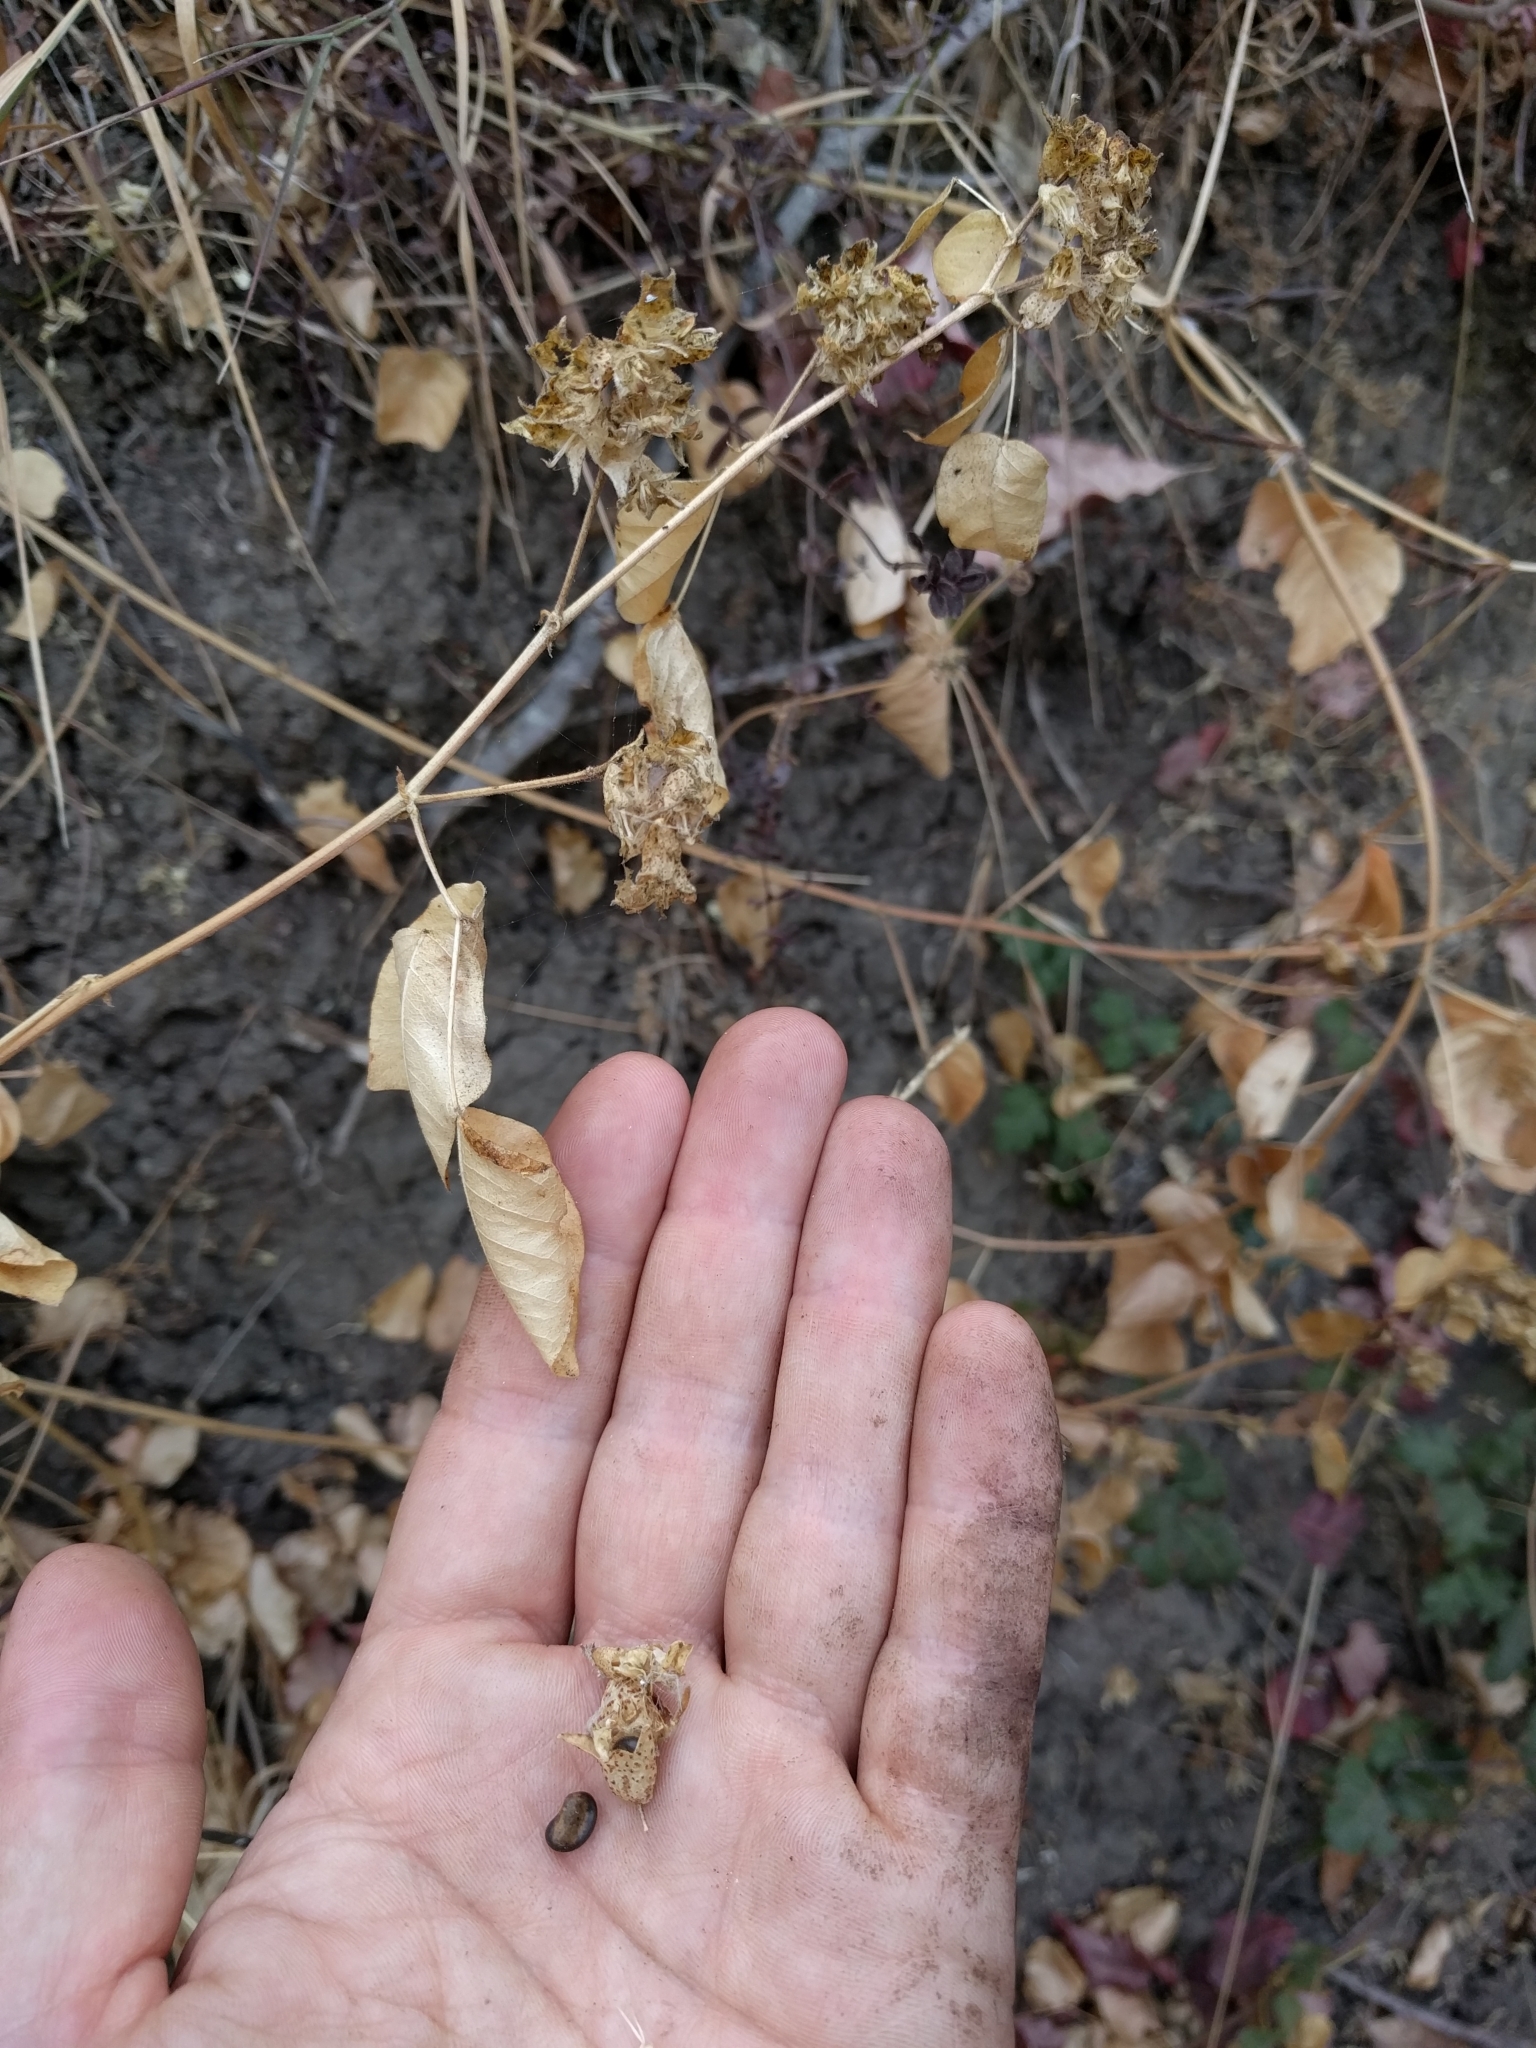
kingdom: Plantae
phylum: Tracheophyta
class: Magnoliopsida
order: Fabales
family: Fabaceae
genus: Rupertia
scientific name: Rupertia physodes
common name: California-tea
